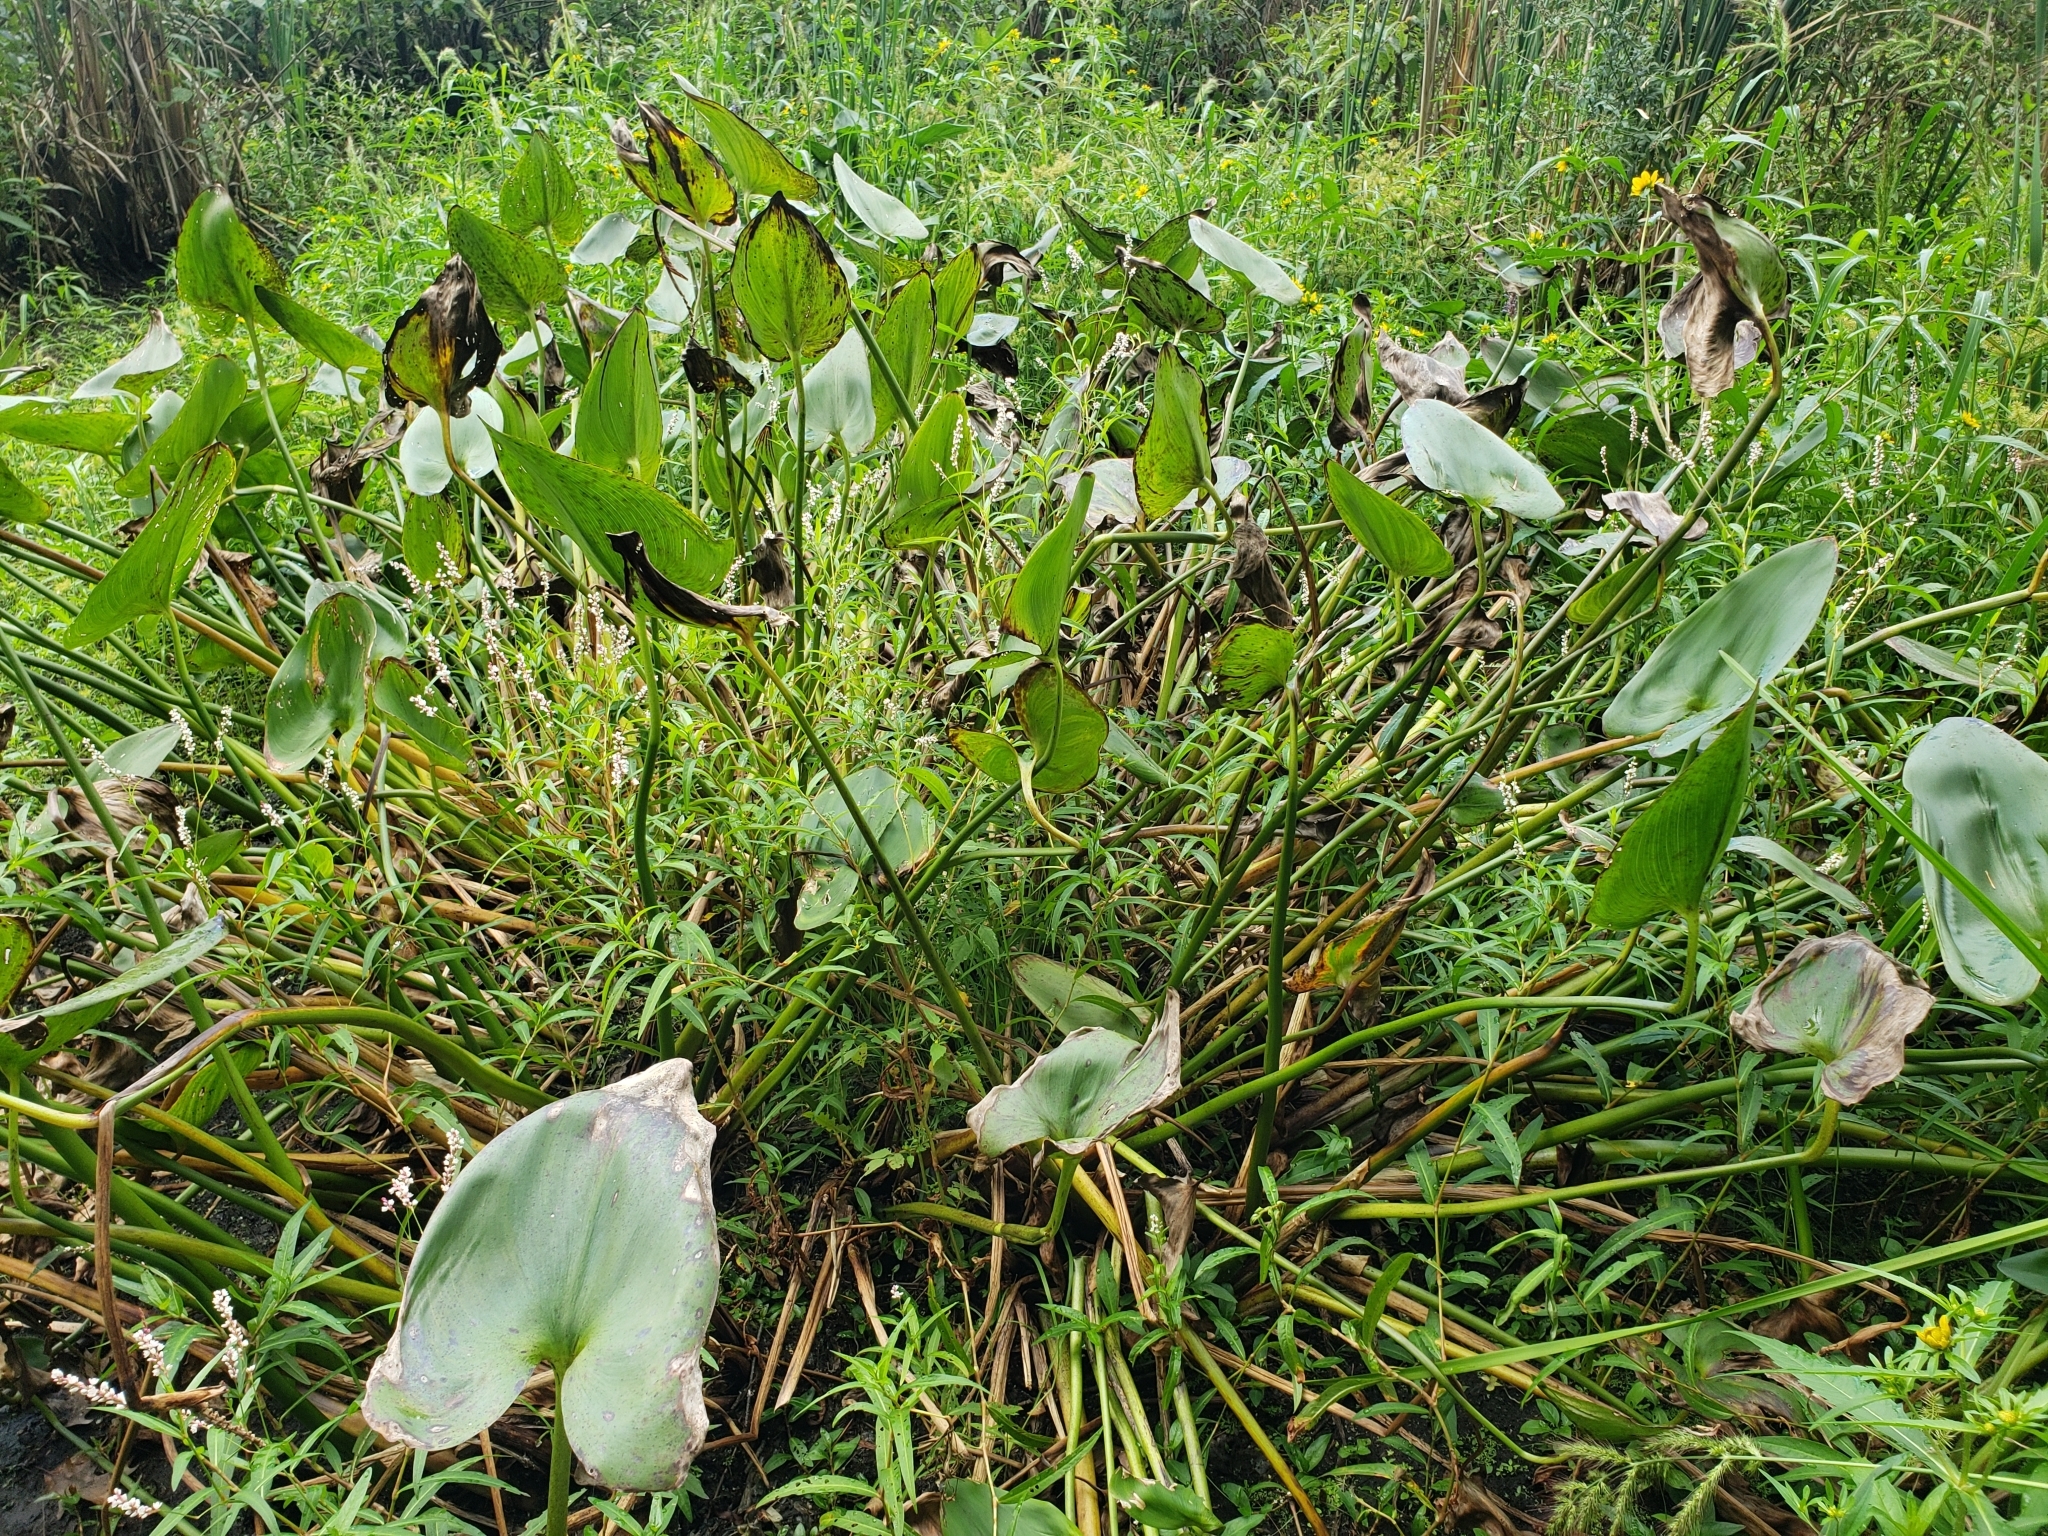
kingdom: Plantae
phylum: Tracheophyta
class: Liliopsida
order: Commelinales
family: Pontederiaceae
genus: Pontederia
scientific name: Pontederia cordata
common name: Pickerelweed
